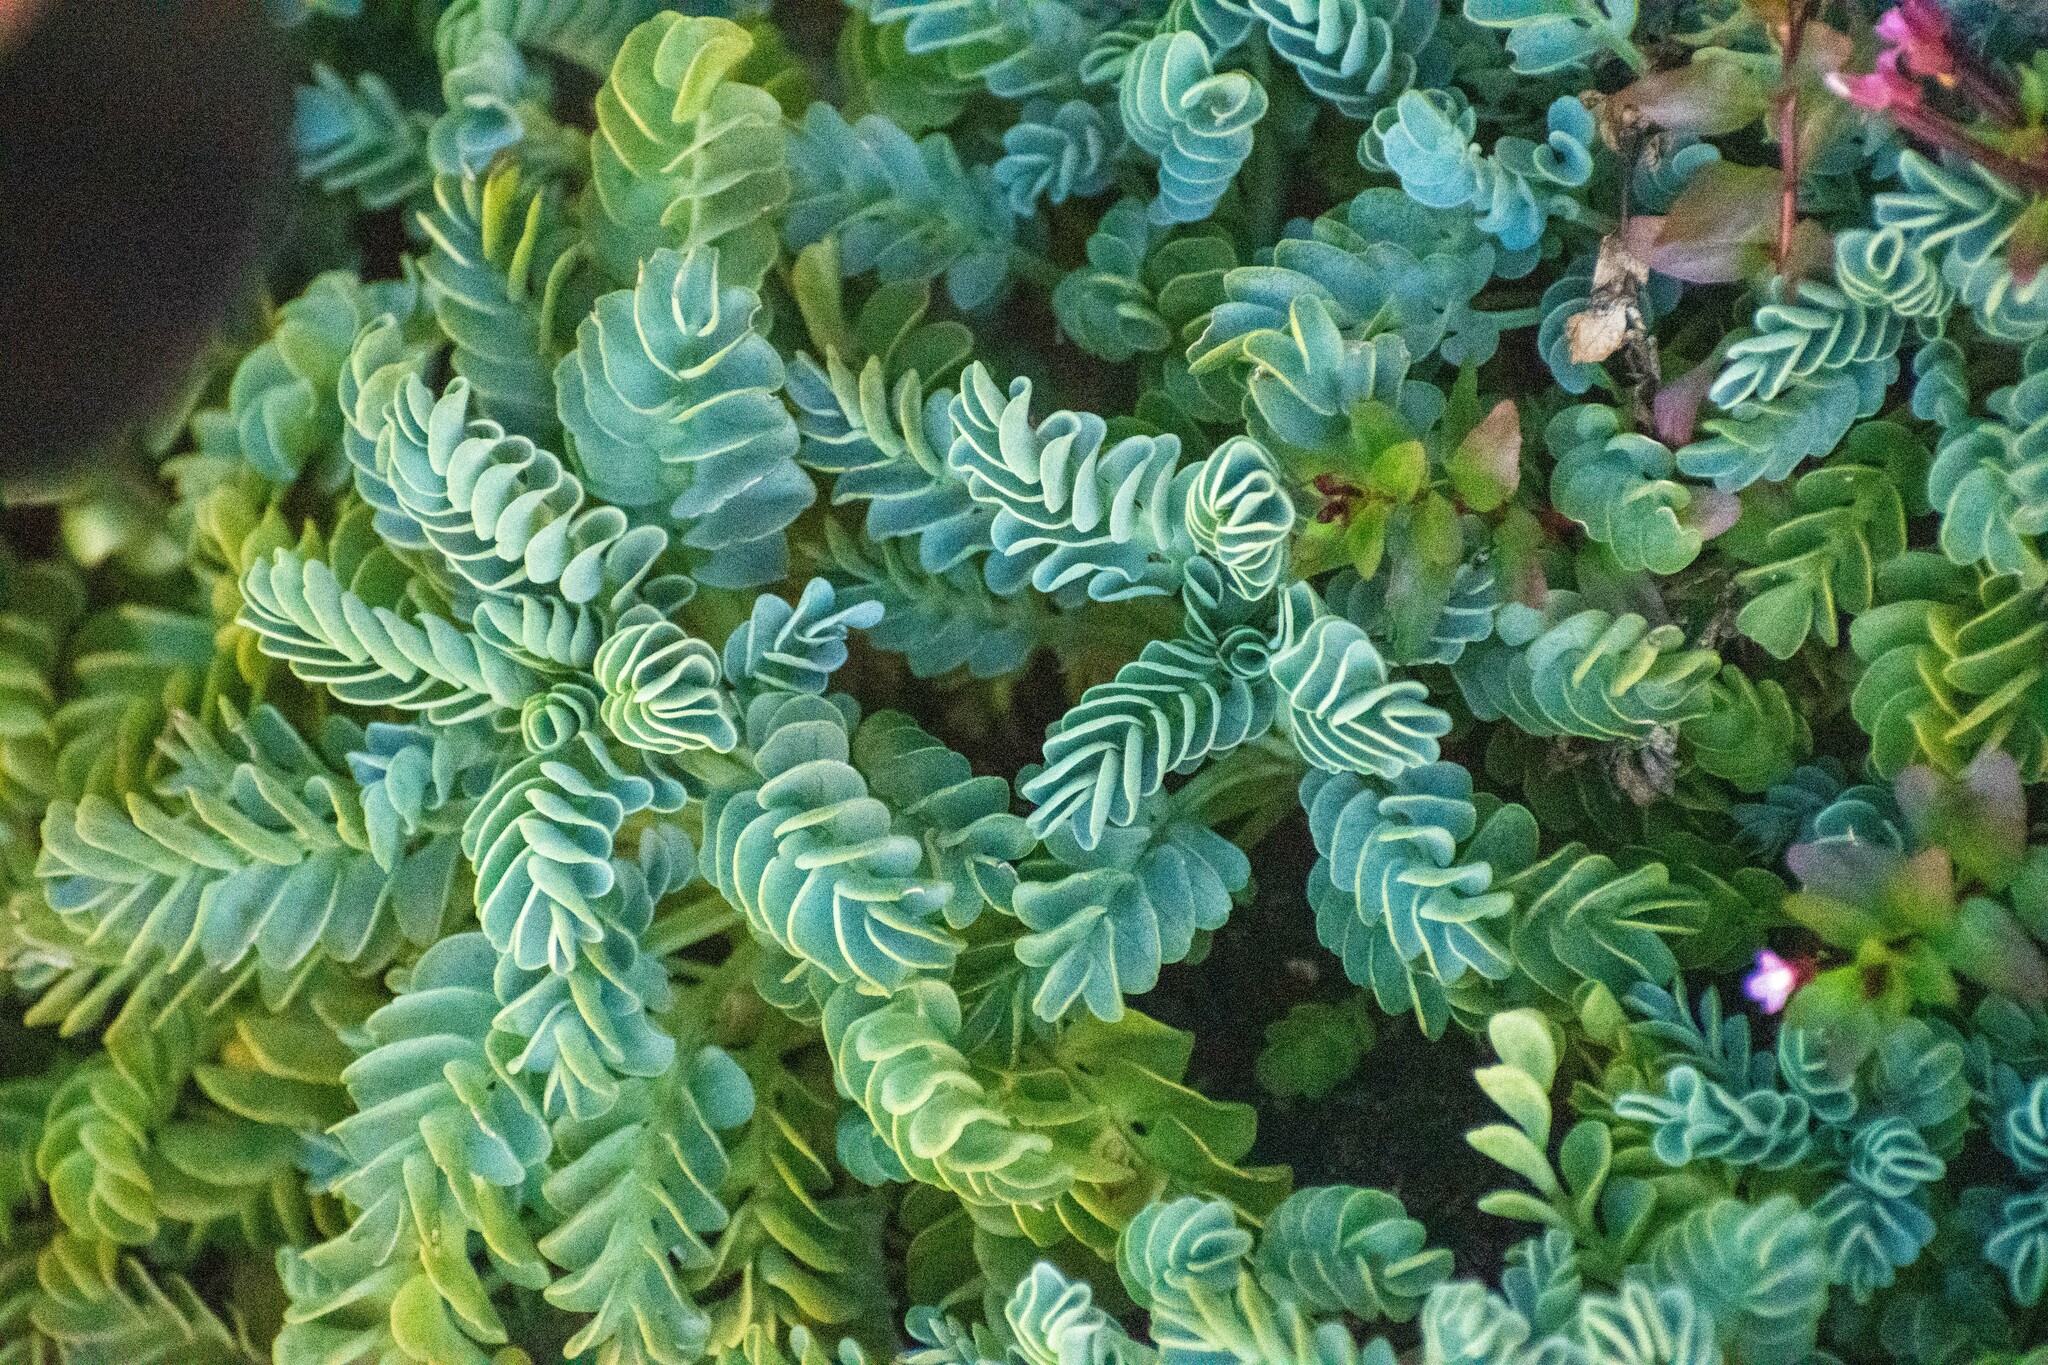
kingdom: Plantae
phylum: Tracheophyta
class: Magnoliopsida
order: Dipsacales
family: Caprifoliaceae
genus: Valeriana
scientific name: Valeriana philippiana
